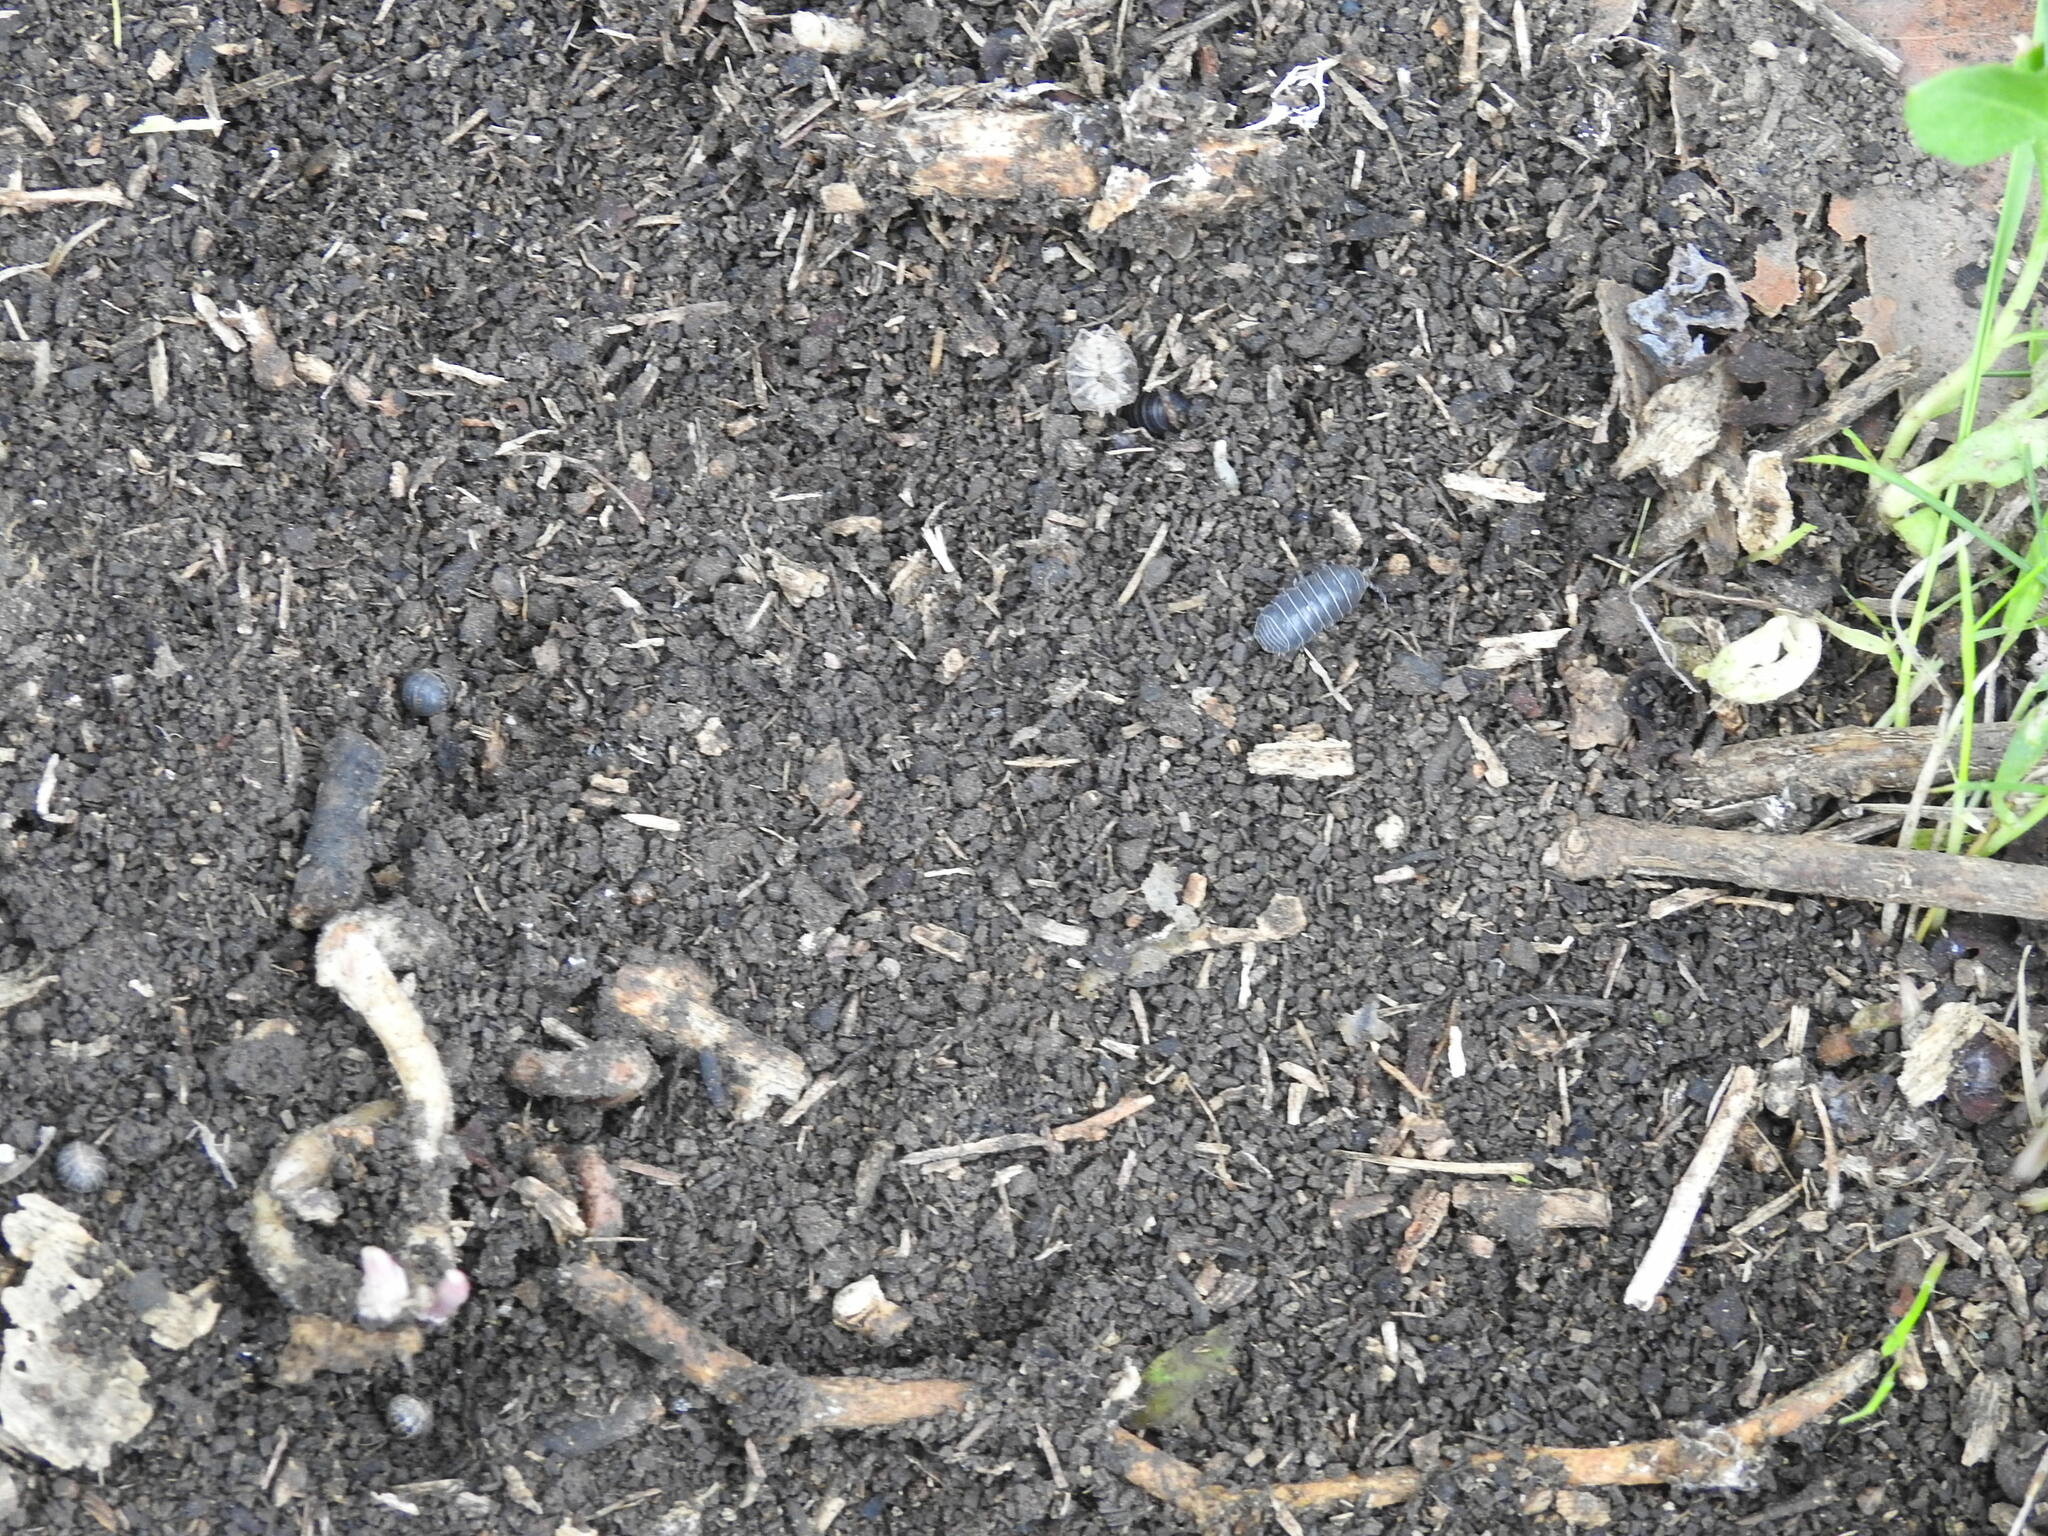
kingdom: Animalia
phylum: Arthropoda
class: Malacostraca
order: Isopoda
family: Armadillidiidae
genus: Armadillidium
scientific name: Armadillidium vulgare
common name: Common pill woodlouse
